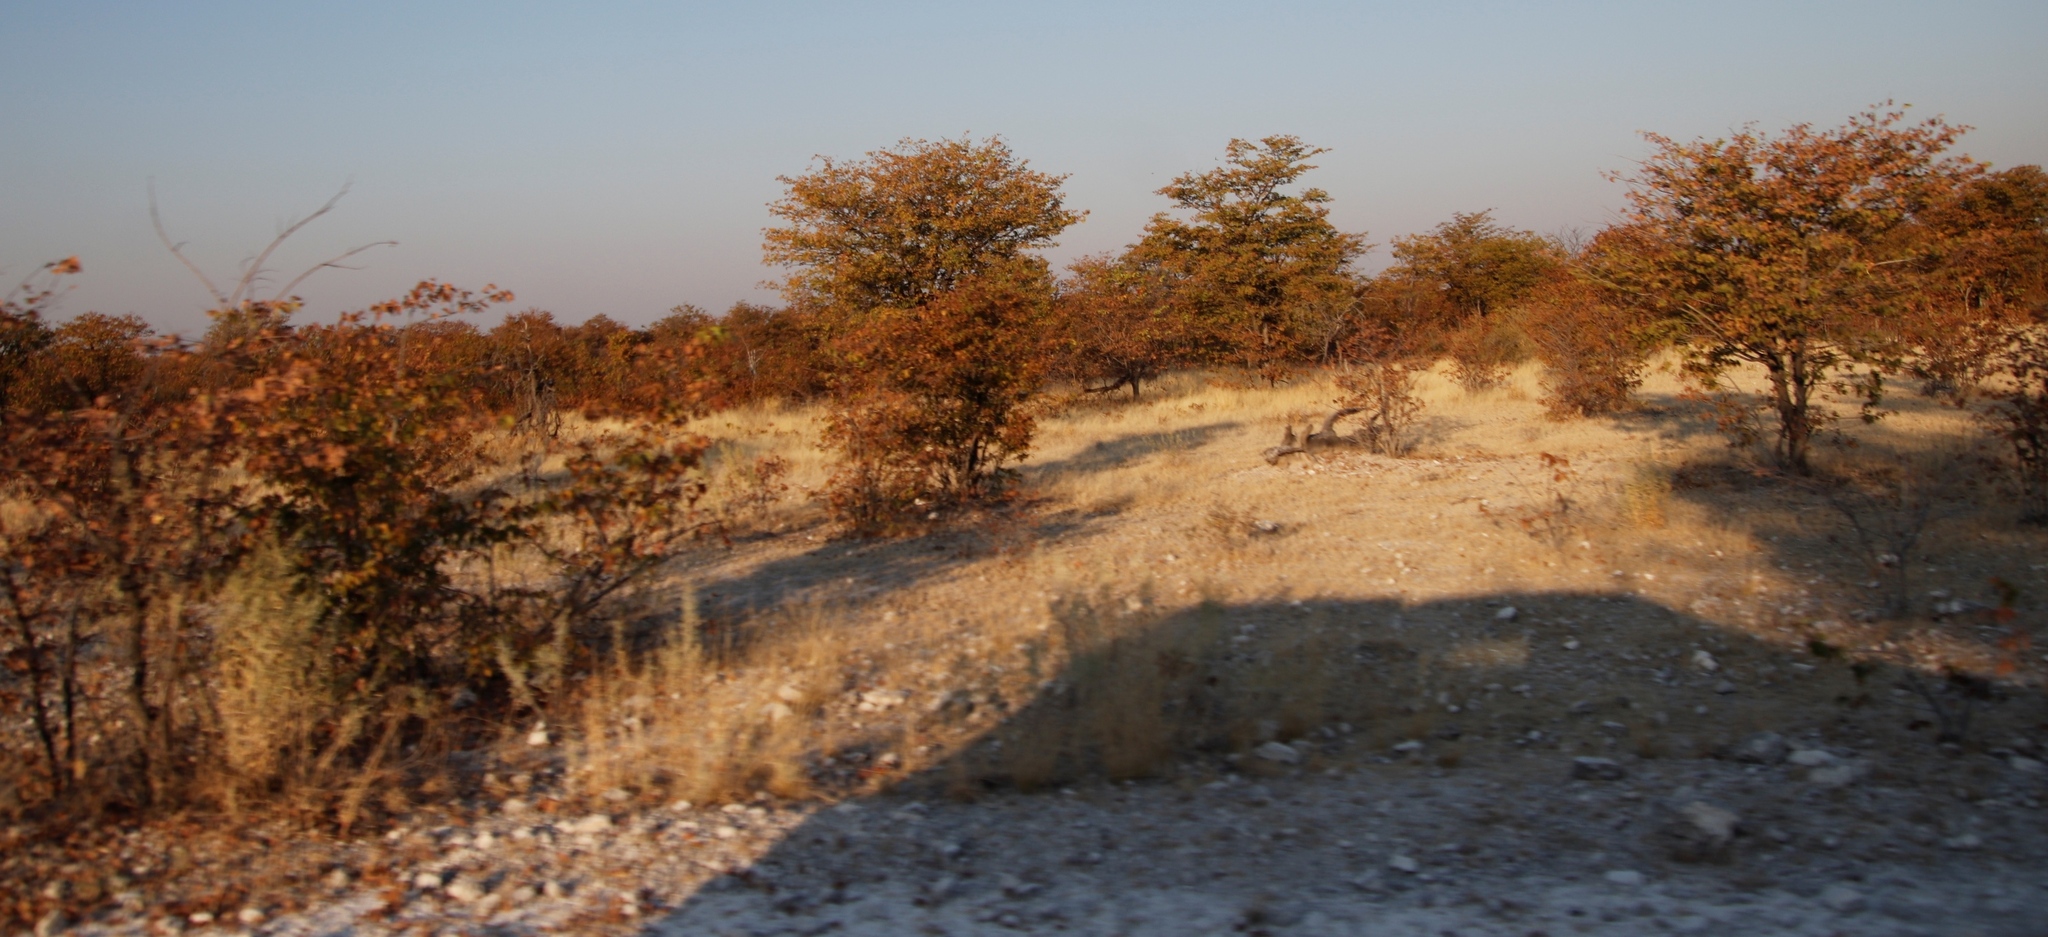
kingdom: Plantae
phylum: Tracheophyta
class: Magnoliopsida
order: Fabales
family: Fabaceae
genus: Colophospermum
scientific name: Colophospermum mopane
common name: Mopane
